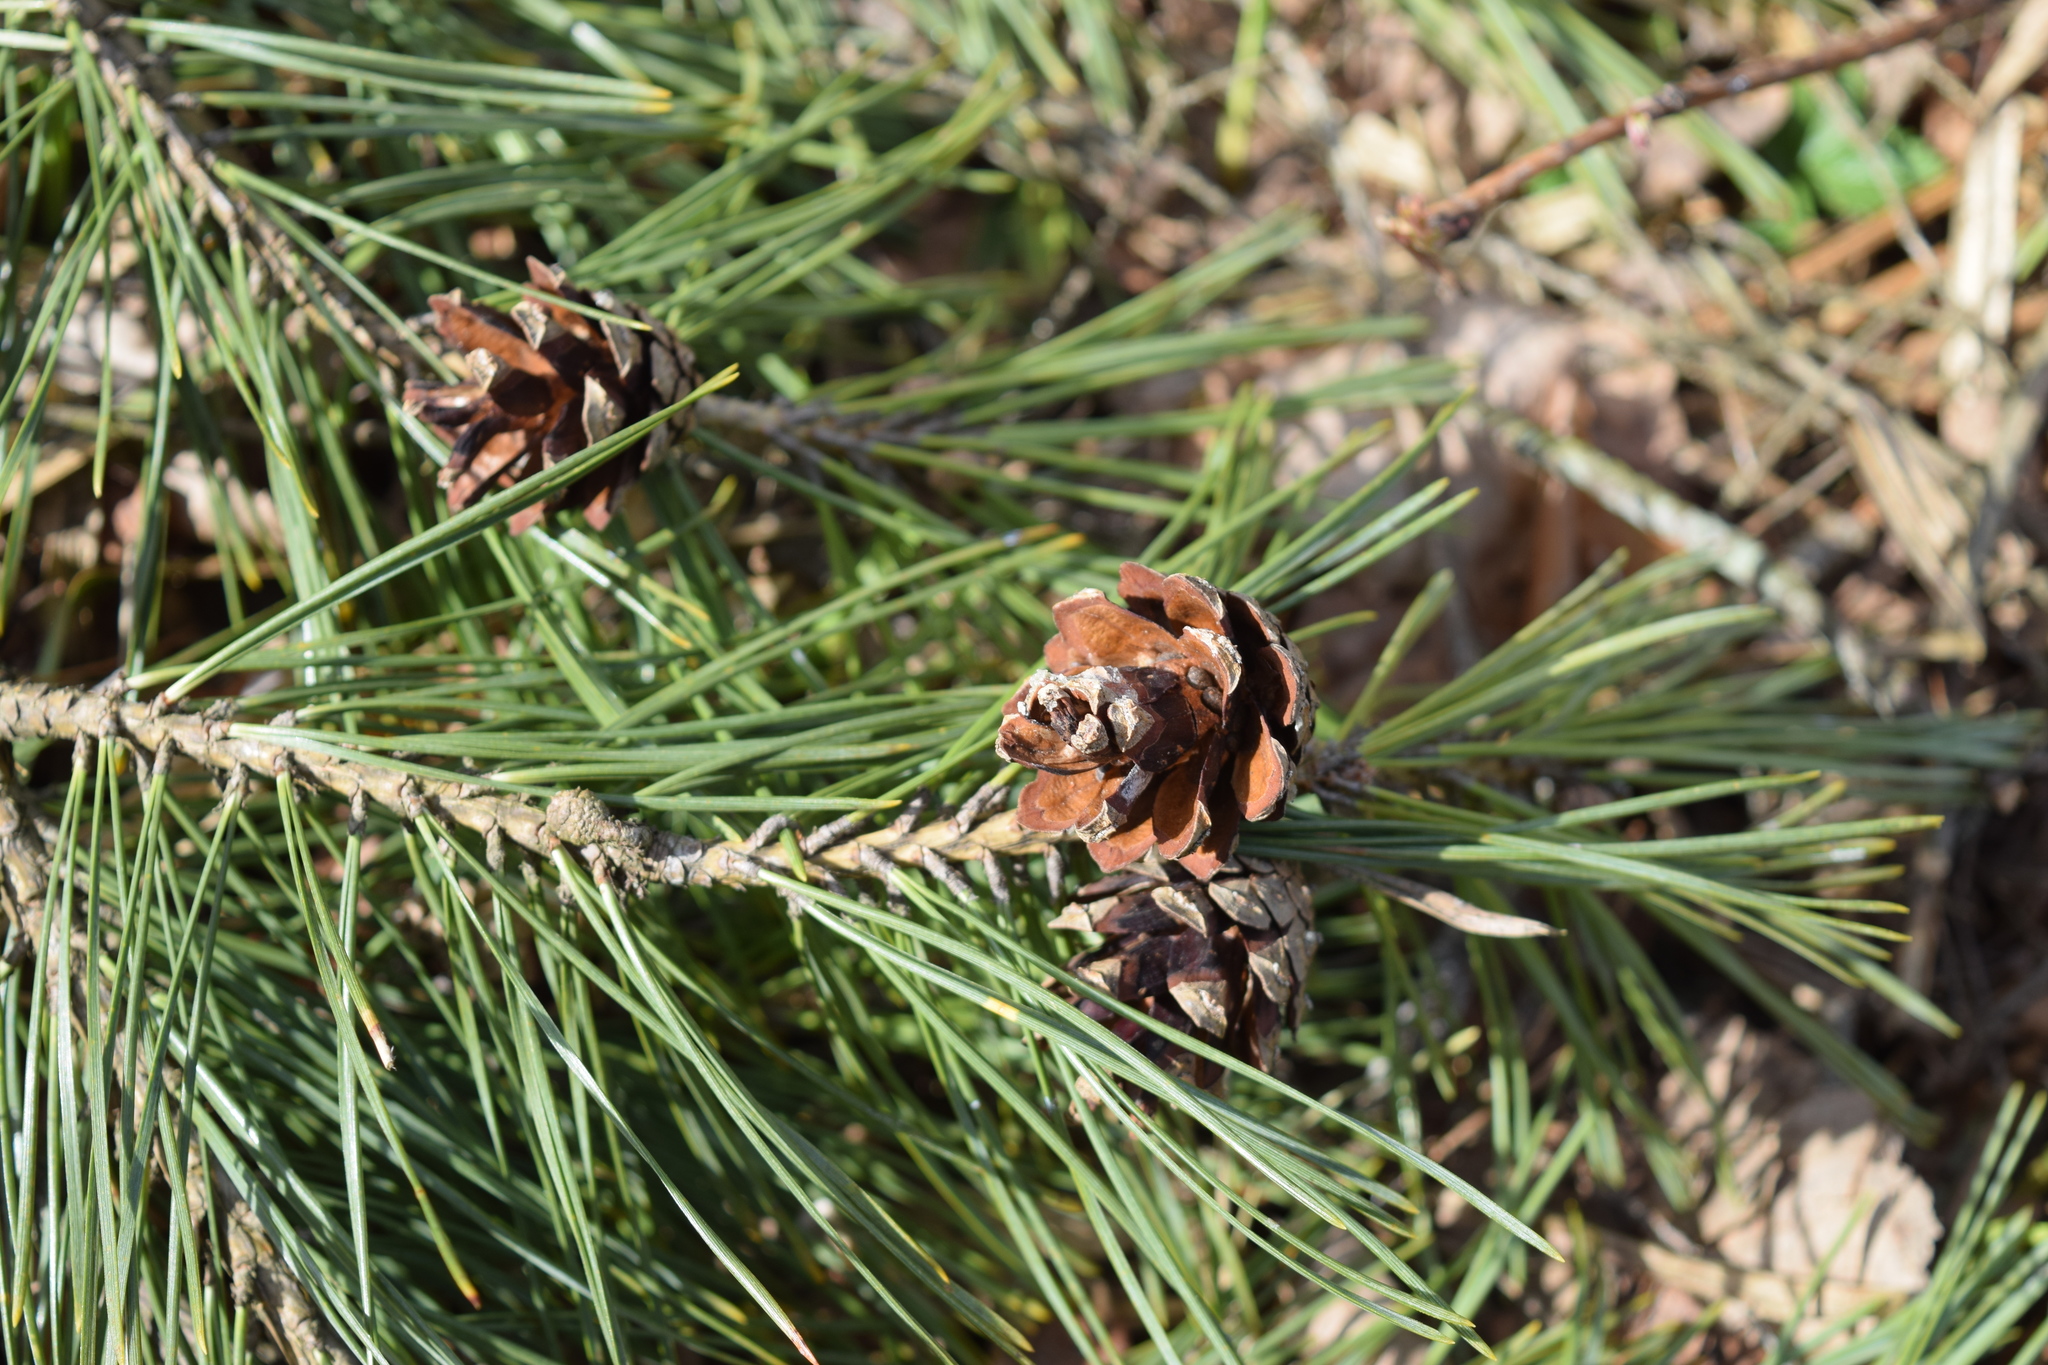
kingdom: Plantae
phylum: Tracheophyta
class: Pinopsida
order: Pinales
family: Pinaceae
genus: Pinus
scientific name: Pinus sylvestris
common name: Scots pine
